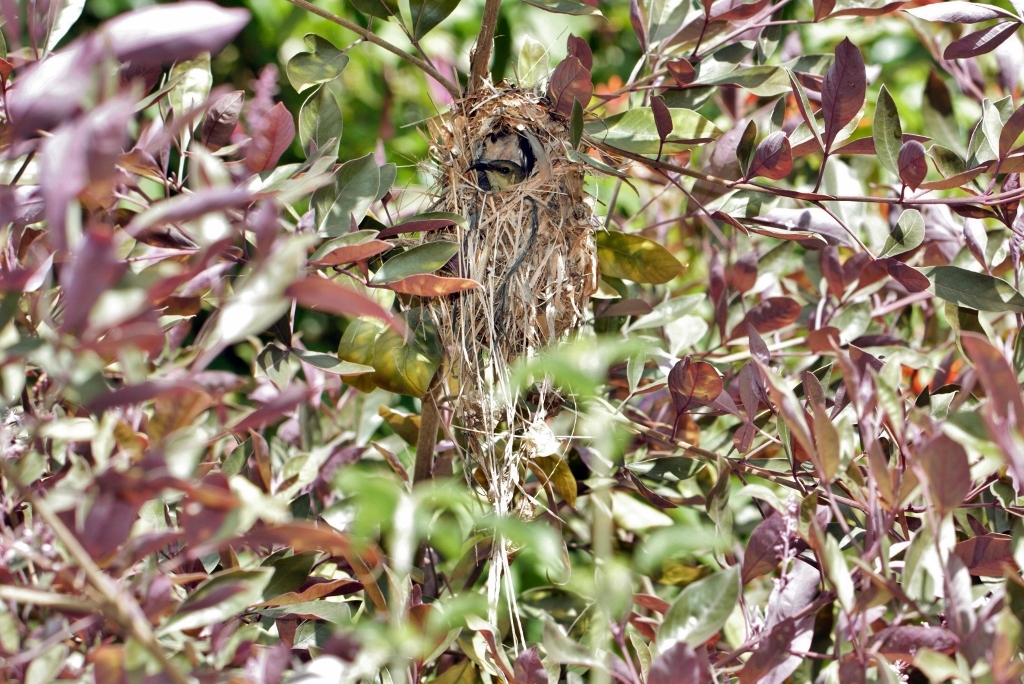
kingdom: Animalia
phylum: Chordata
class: Aves
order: Passeriformes
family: Nectariniidae
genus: Cinnyris
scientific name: Cinnyris venustus
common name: Variable sunbird
